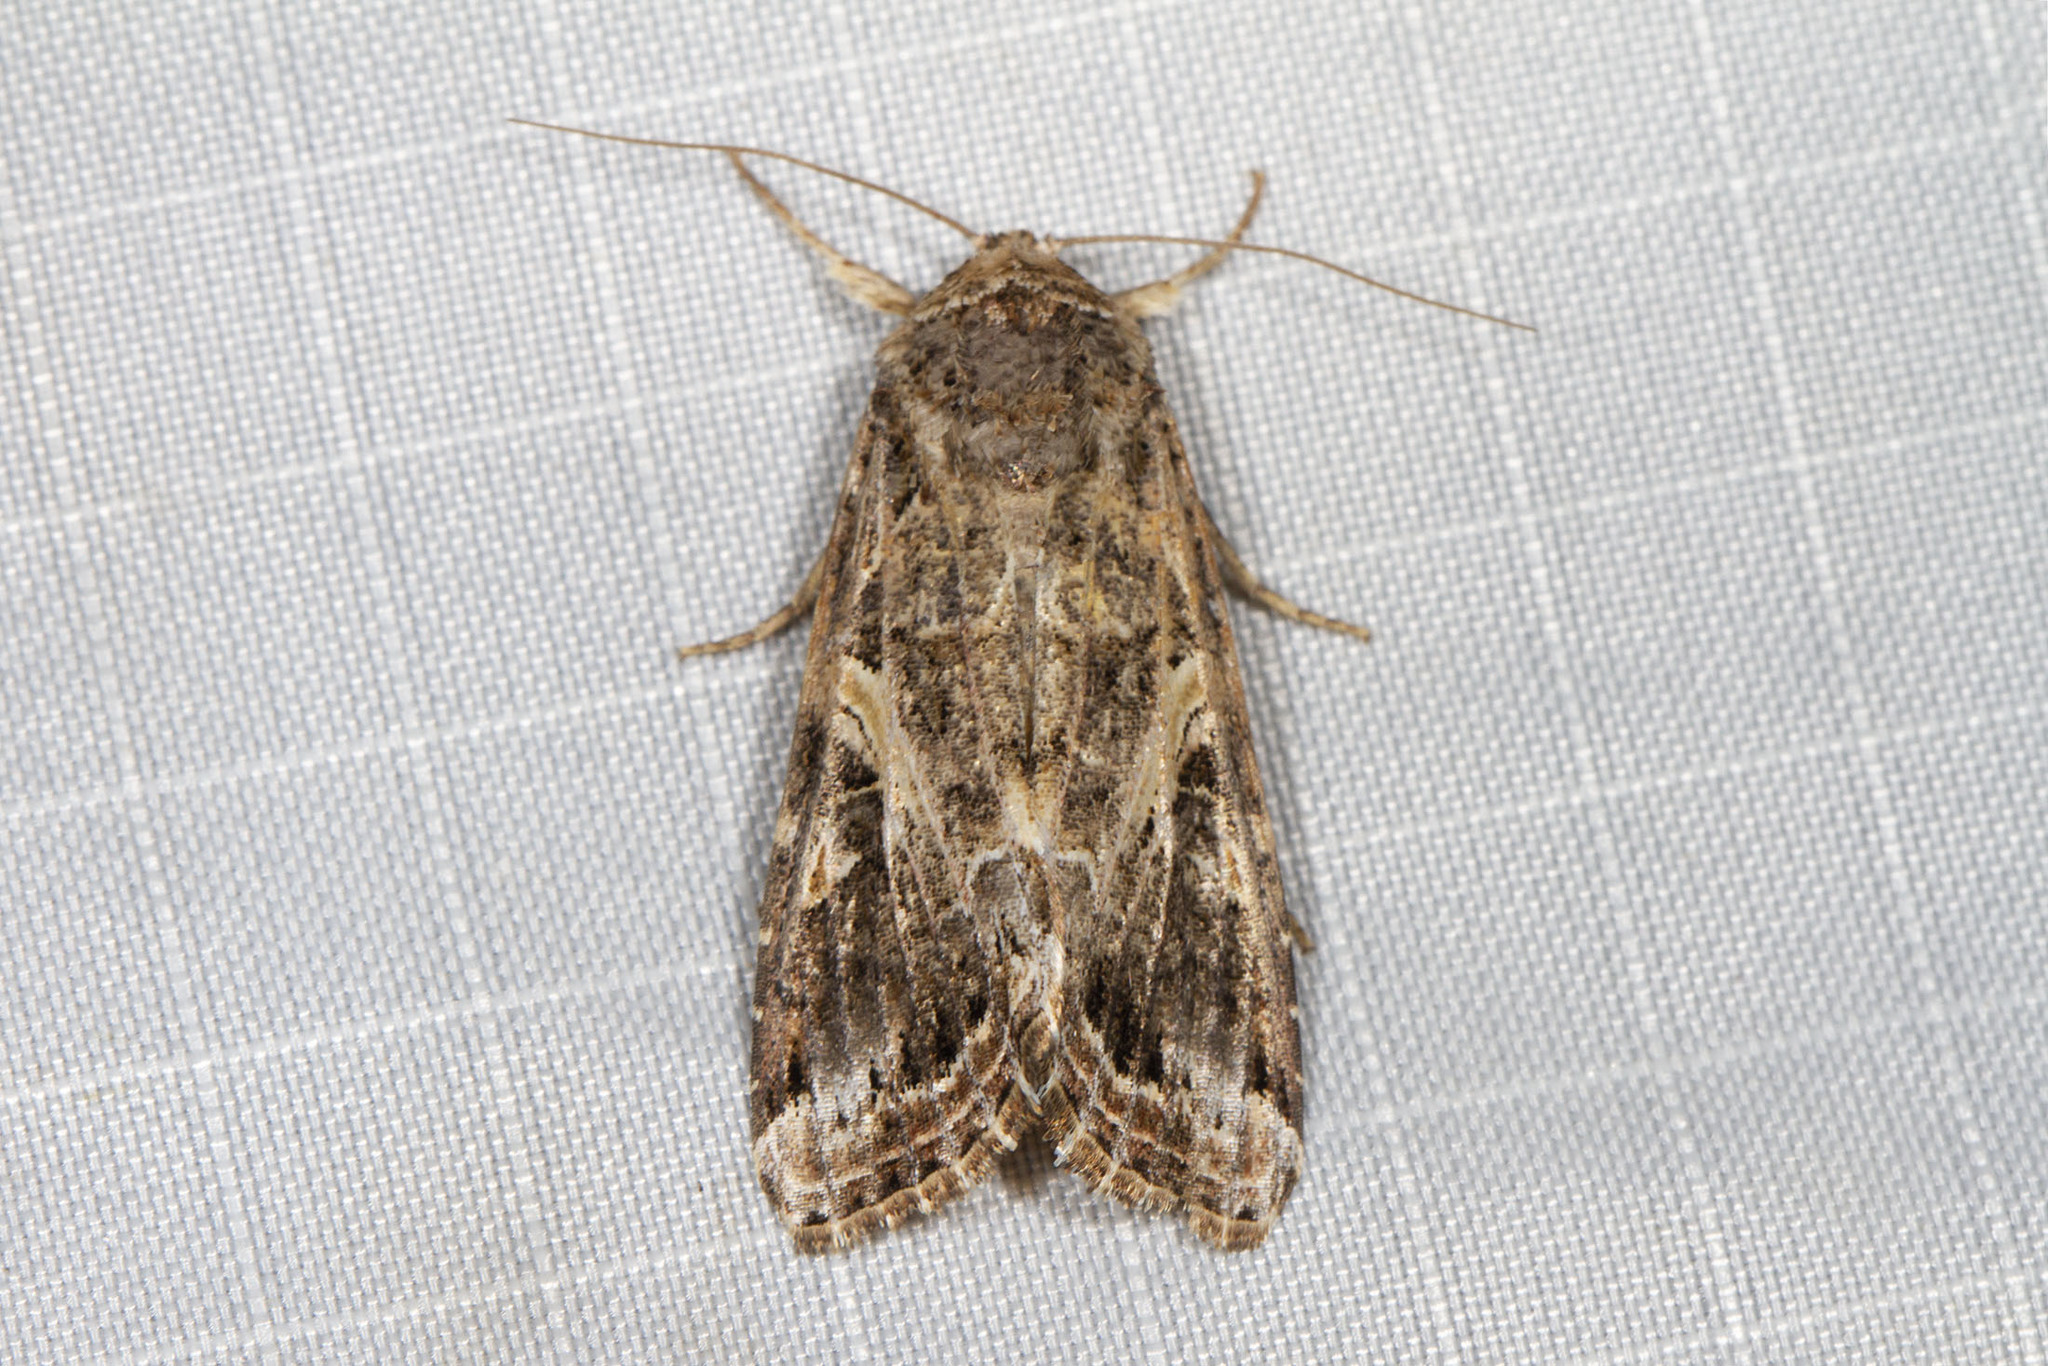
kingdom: Animalia
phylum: Arthropoda
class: Insecta
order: Lepidoptera
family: Noctuidae
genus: Spodoptera
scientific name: Spodoptera ornithogalli
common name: Yellow-striped armyworm
